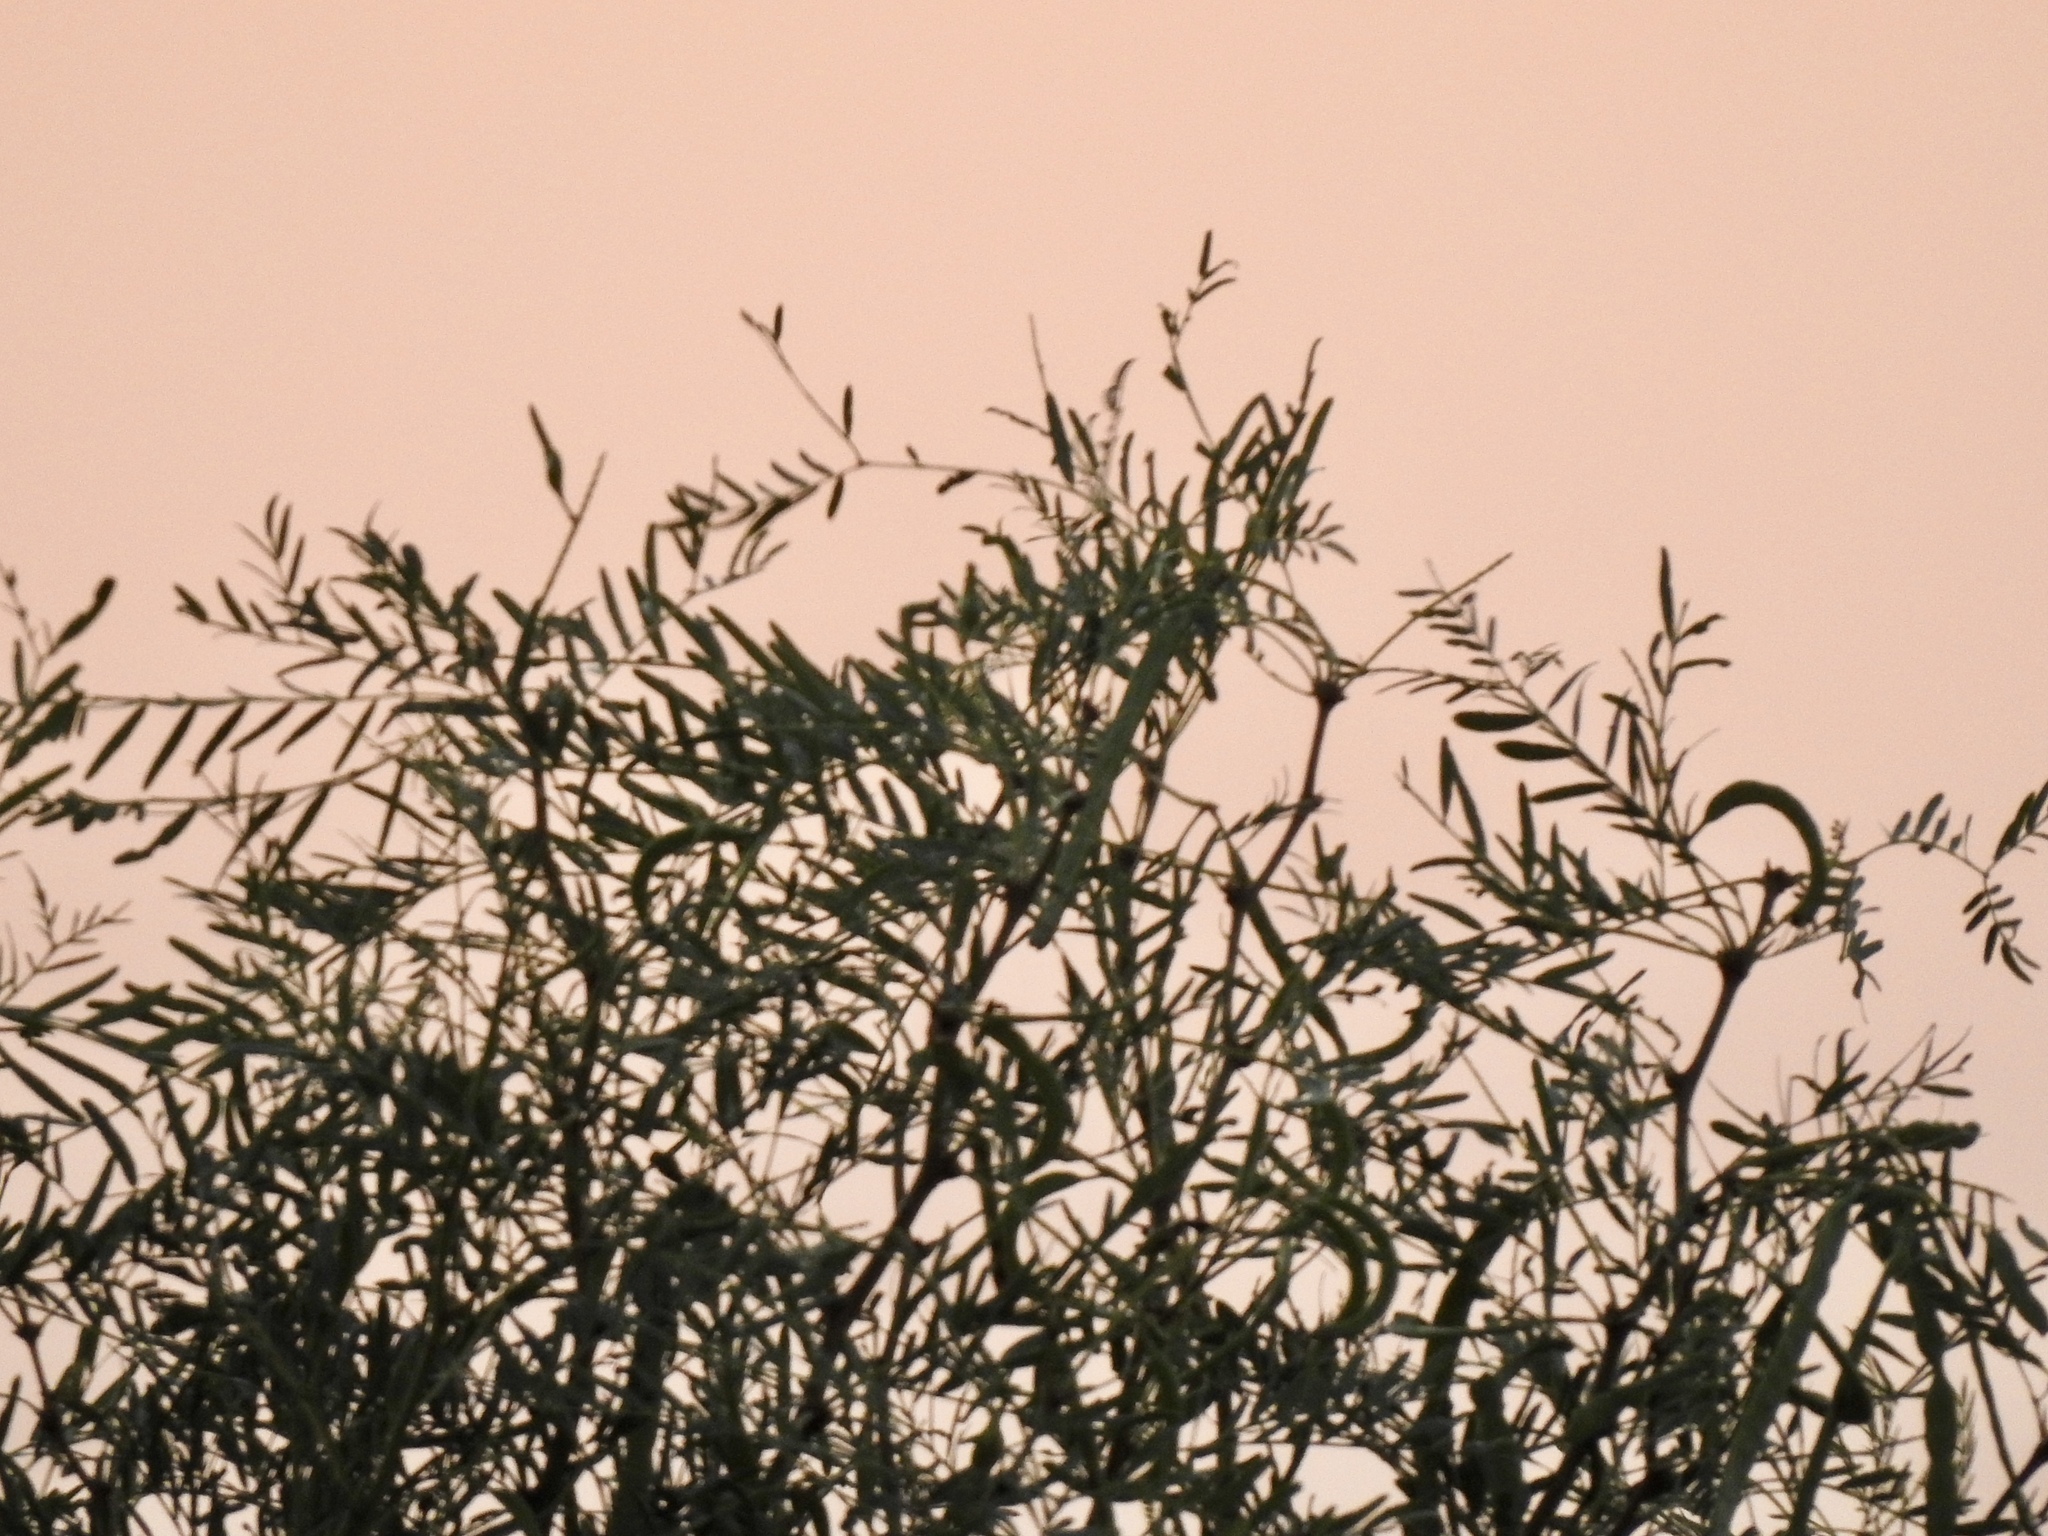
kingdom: Plantae
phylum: Tracheophyta
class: Magnoliopsida
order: Fabales
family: Fabaceae
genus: Prosopis
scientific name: Prosopis glandulosa
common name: Honey mesquite
